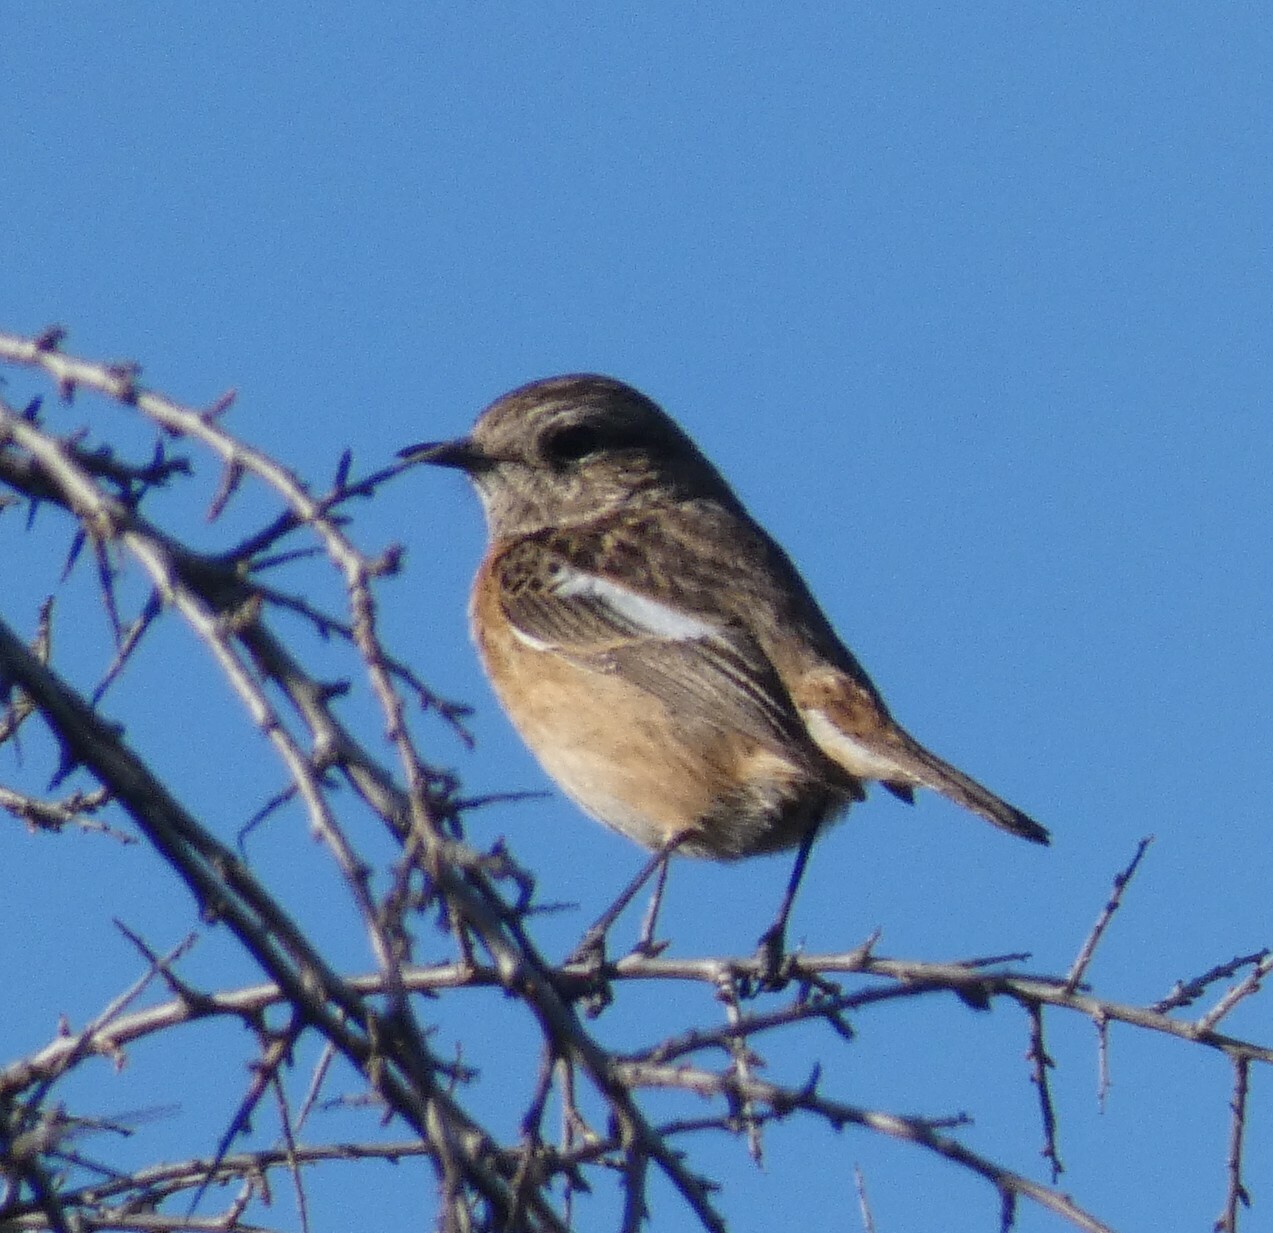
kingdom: Animalia
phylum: Chordata
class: Aves
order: Passeriformes
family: Muscicapidae
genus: Saxicola
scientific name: Saxicola rubicola
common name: European stonechat
